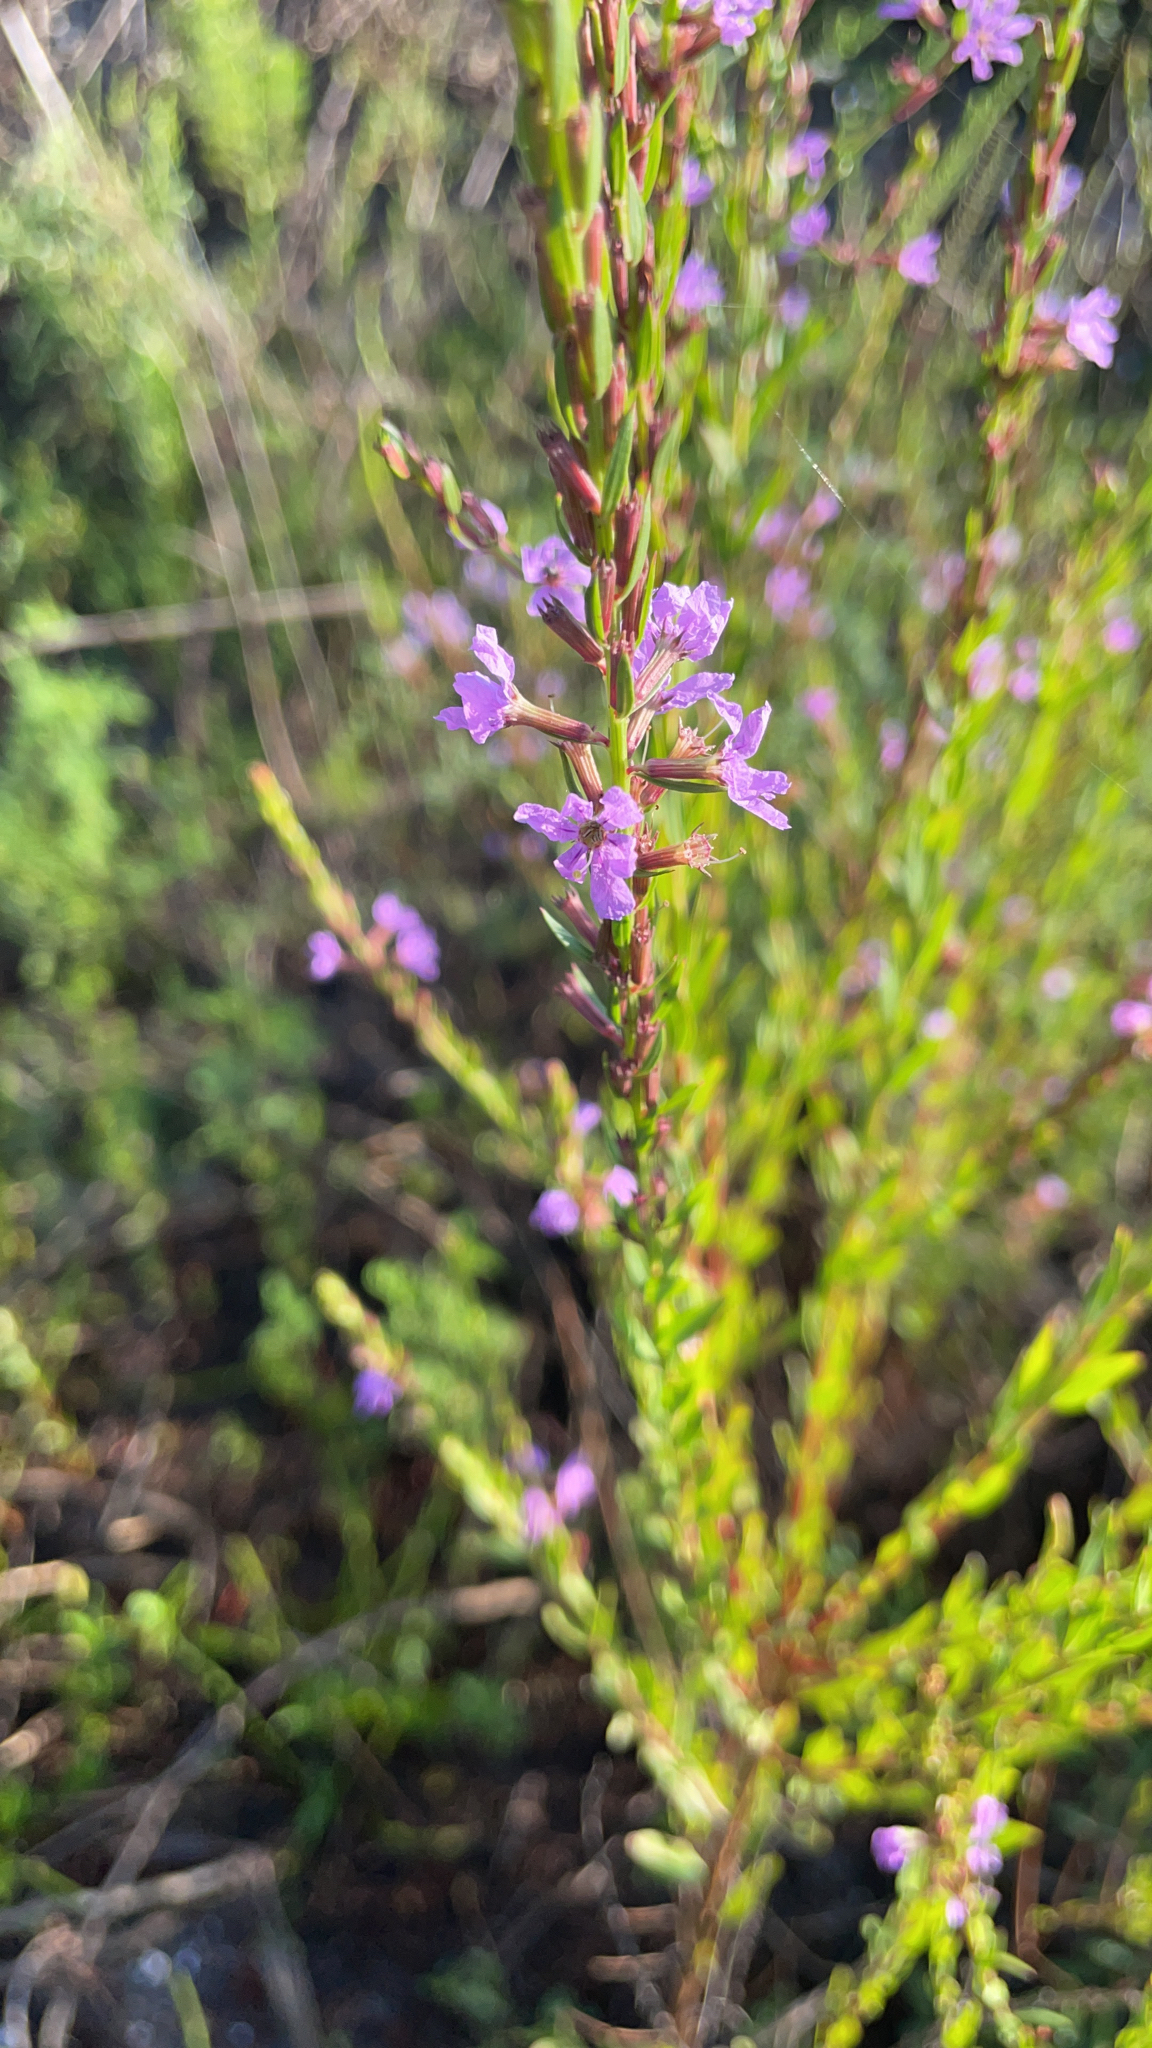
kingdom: Plantae
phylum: Tracheophyta
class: Magnoliopsida
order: Myrtales
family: Lythraceae
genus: Lythrum
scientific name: Lythrum alatum
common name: Winged loosestrife
